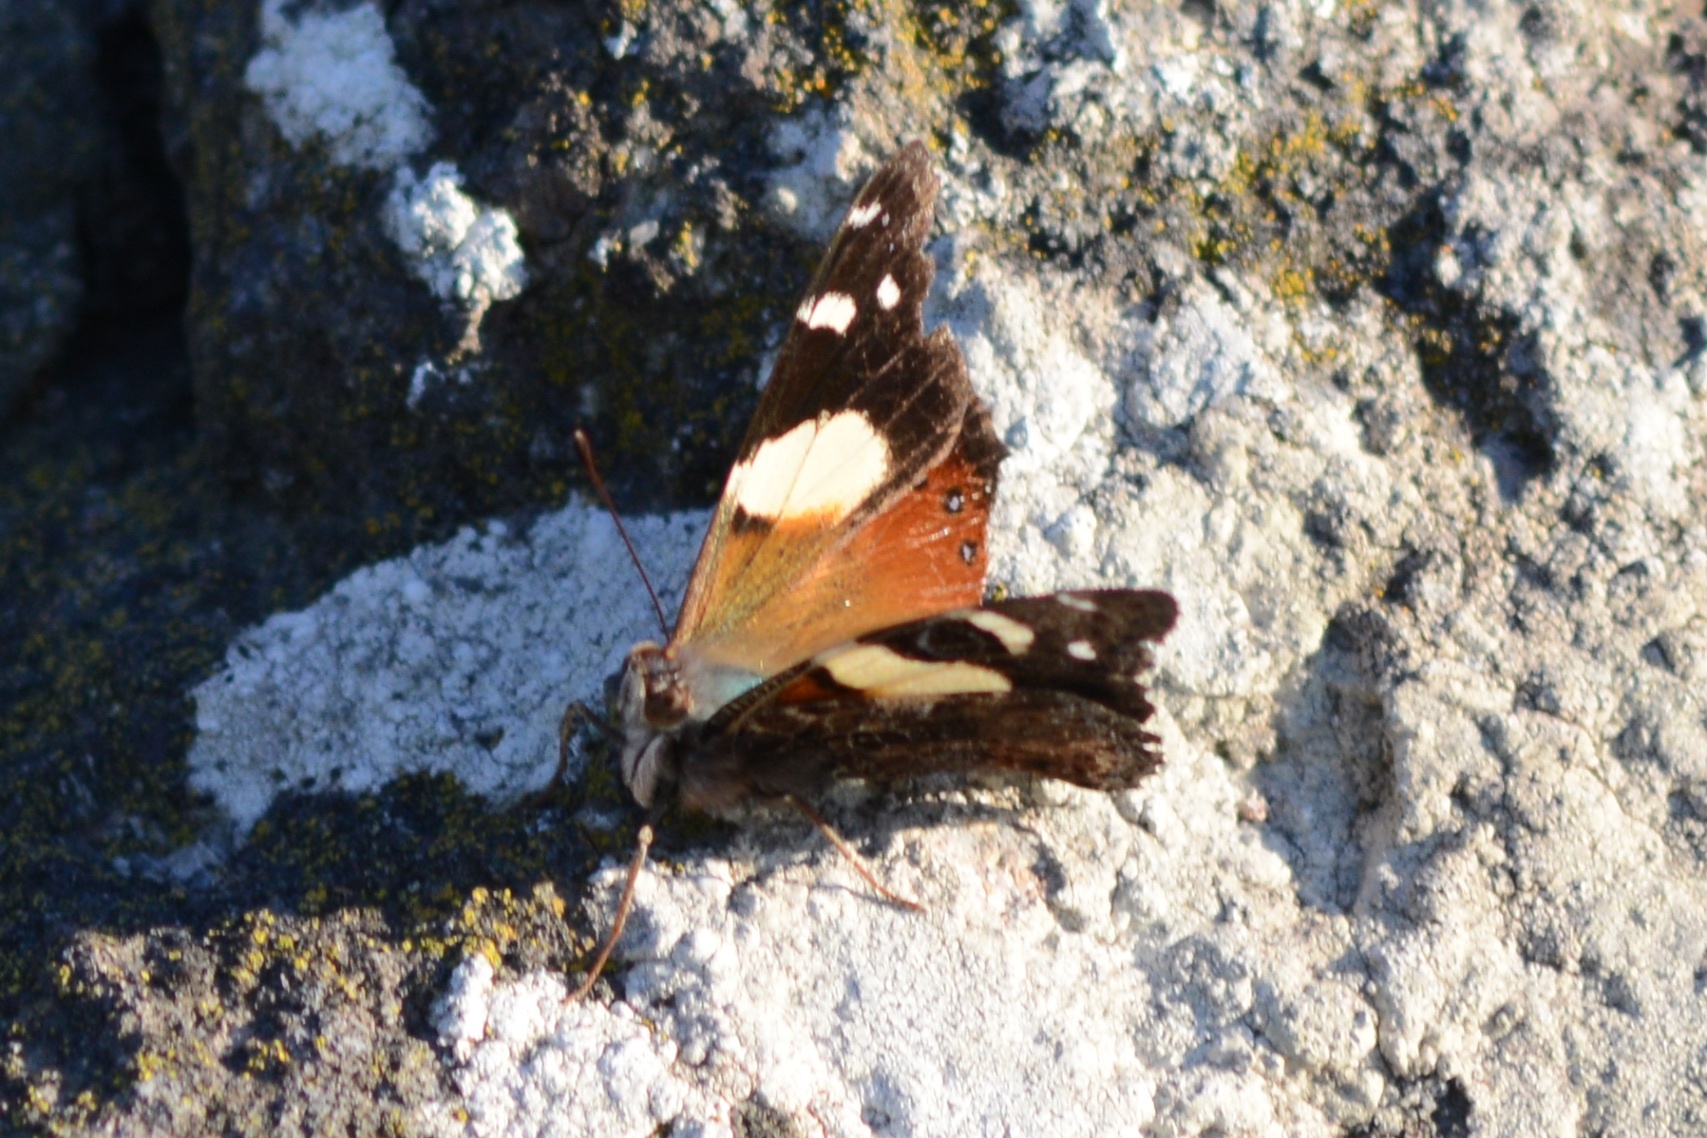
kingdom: Animalia
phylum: Arthropoda
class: Insecta
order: Lepidoptera
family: Nymphalidae
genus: Vanessa
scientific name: Vanessa itea
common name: Yellow admiral
